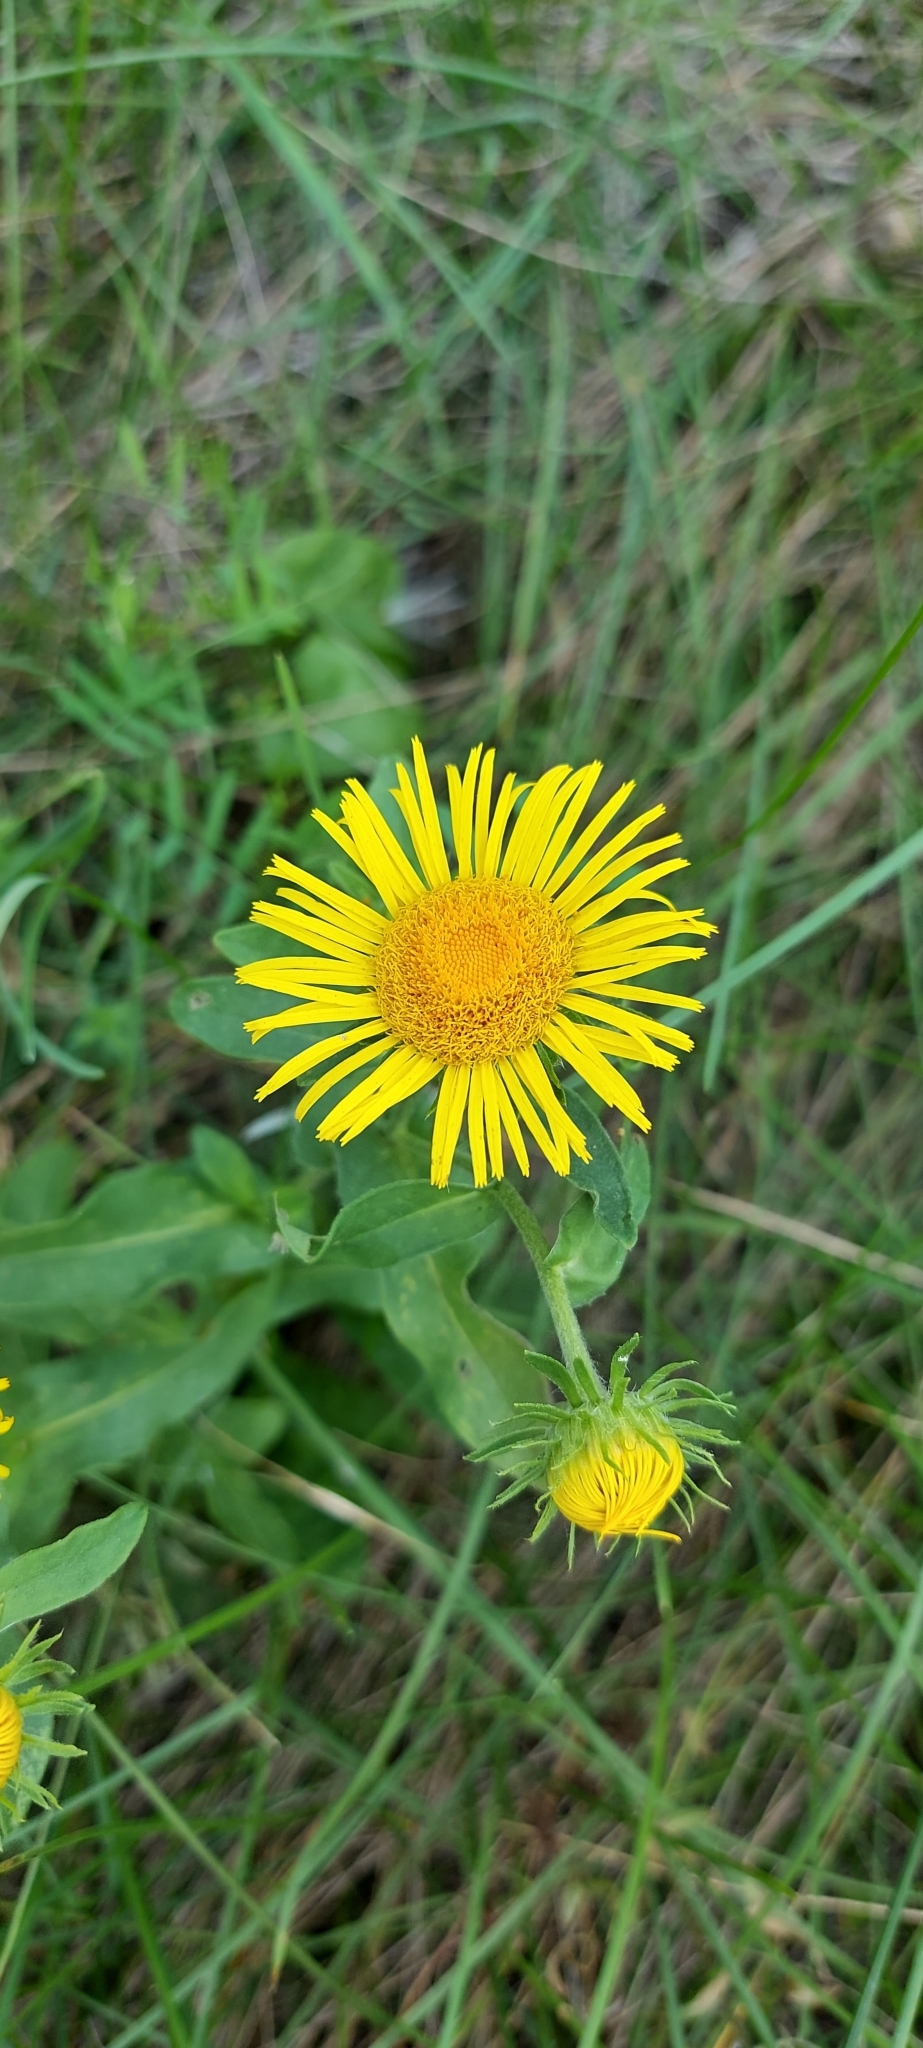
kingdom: Plantae
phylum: Tracheophyta
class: Magnoliopsida
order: Asterales
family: Asteraceae
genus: Pentanema
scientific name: Pentanema britannicum
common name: British elecampane
